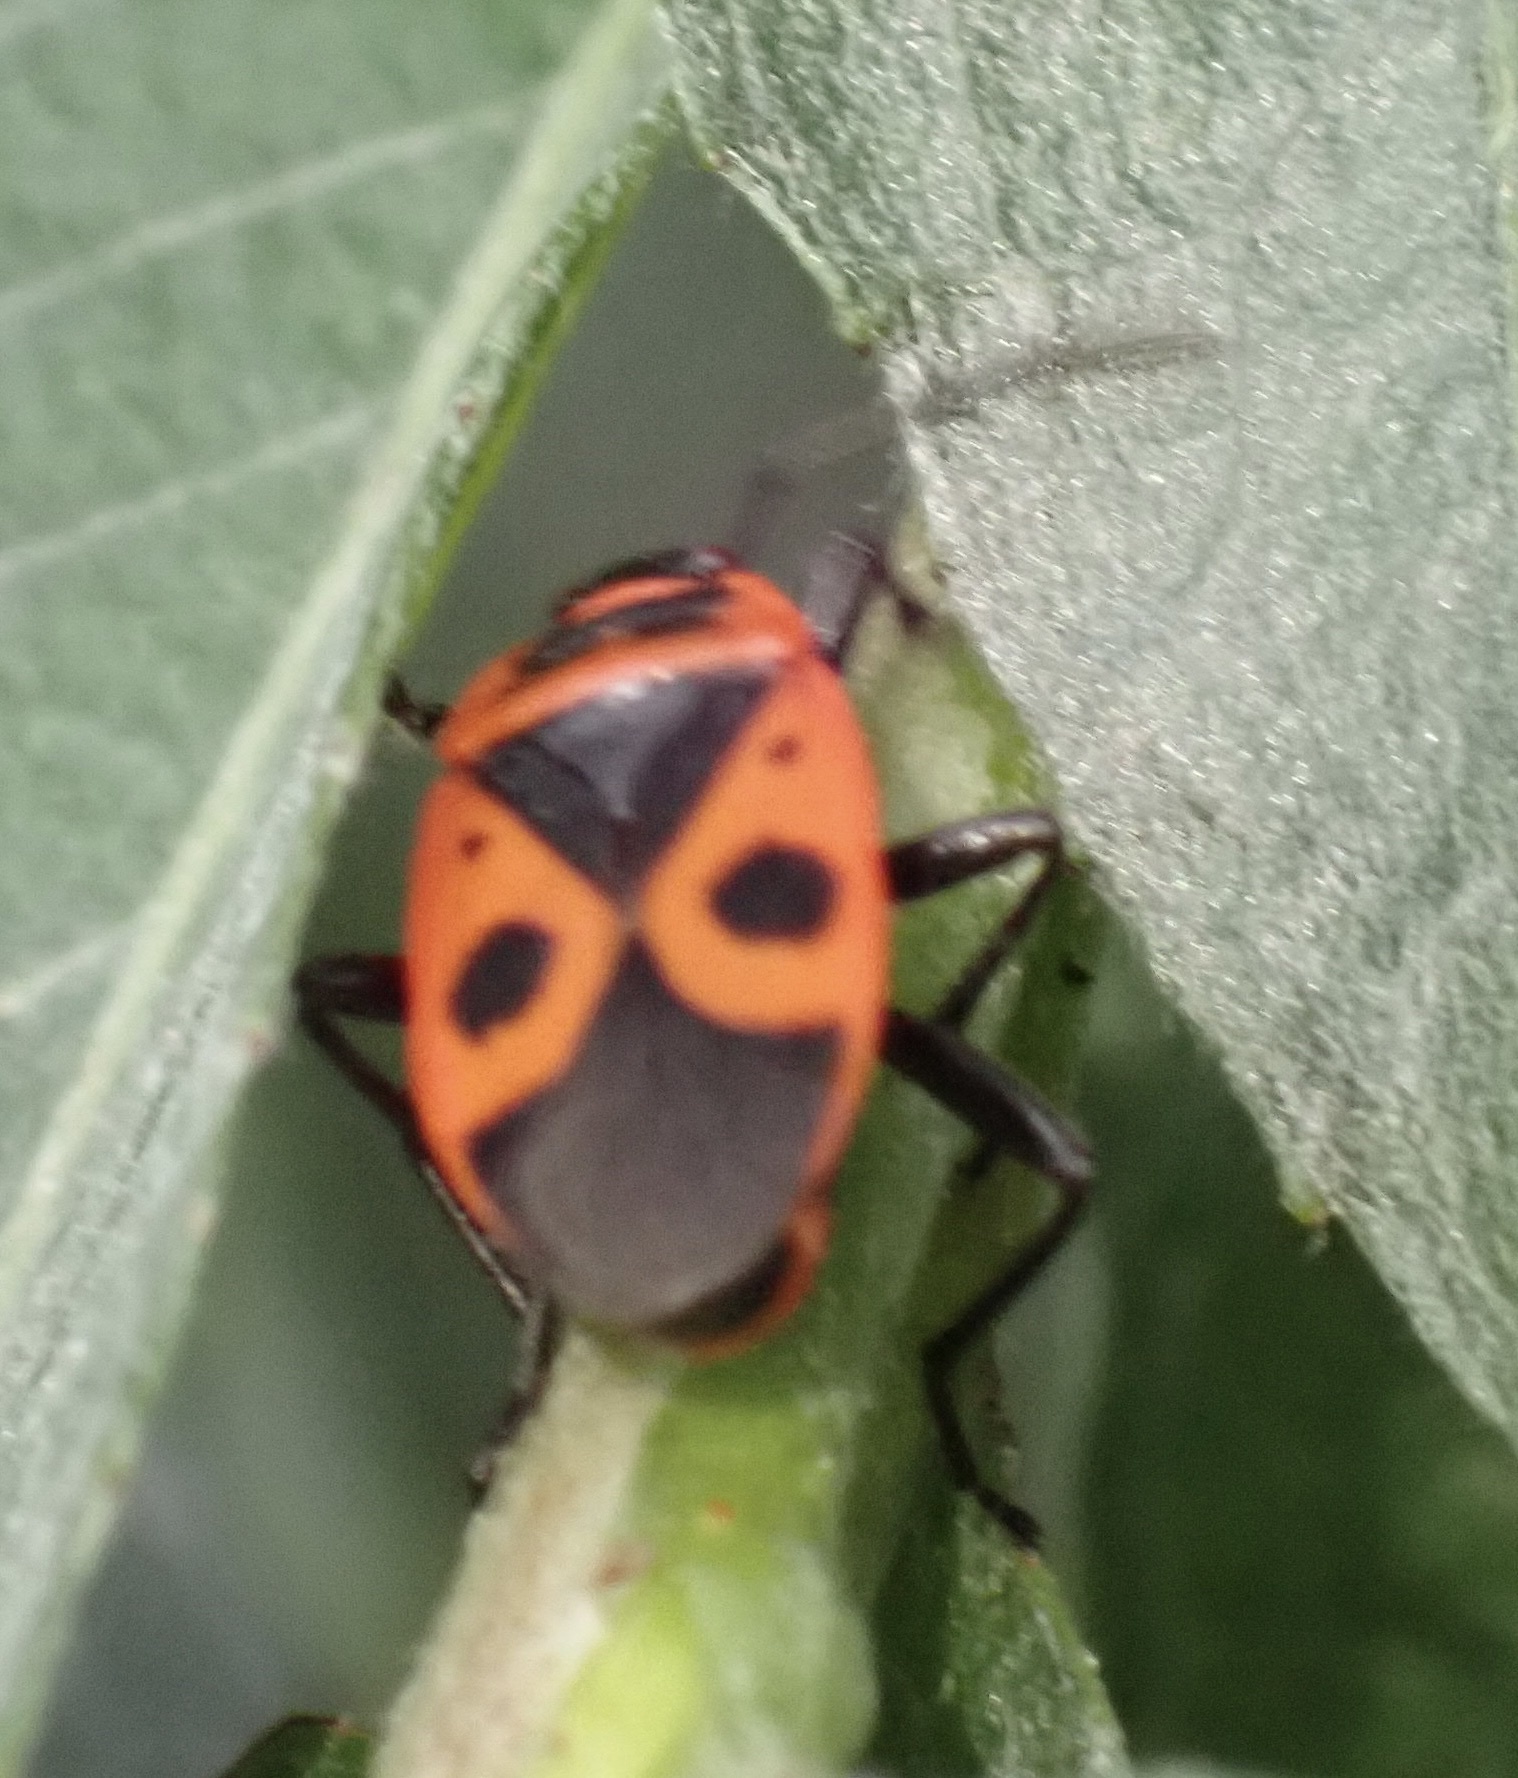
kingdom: Animalia
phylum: Arthropoda
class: Insecta
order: Hemiptera
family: Pyrrhocoridae
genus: Pyrrhocoris
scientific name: Pyrrhocoris apterus
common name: Firebug
